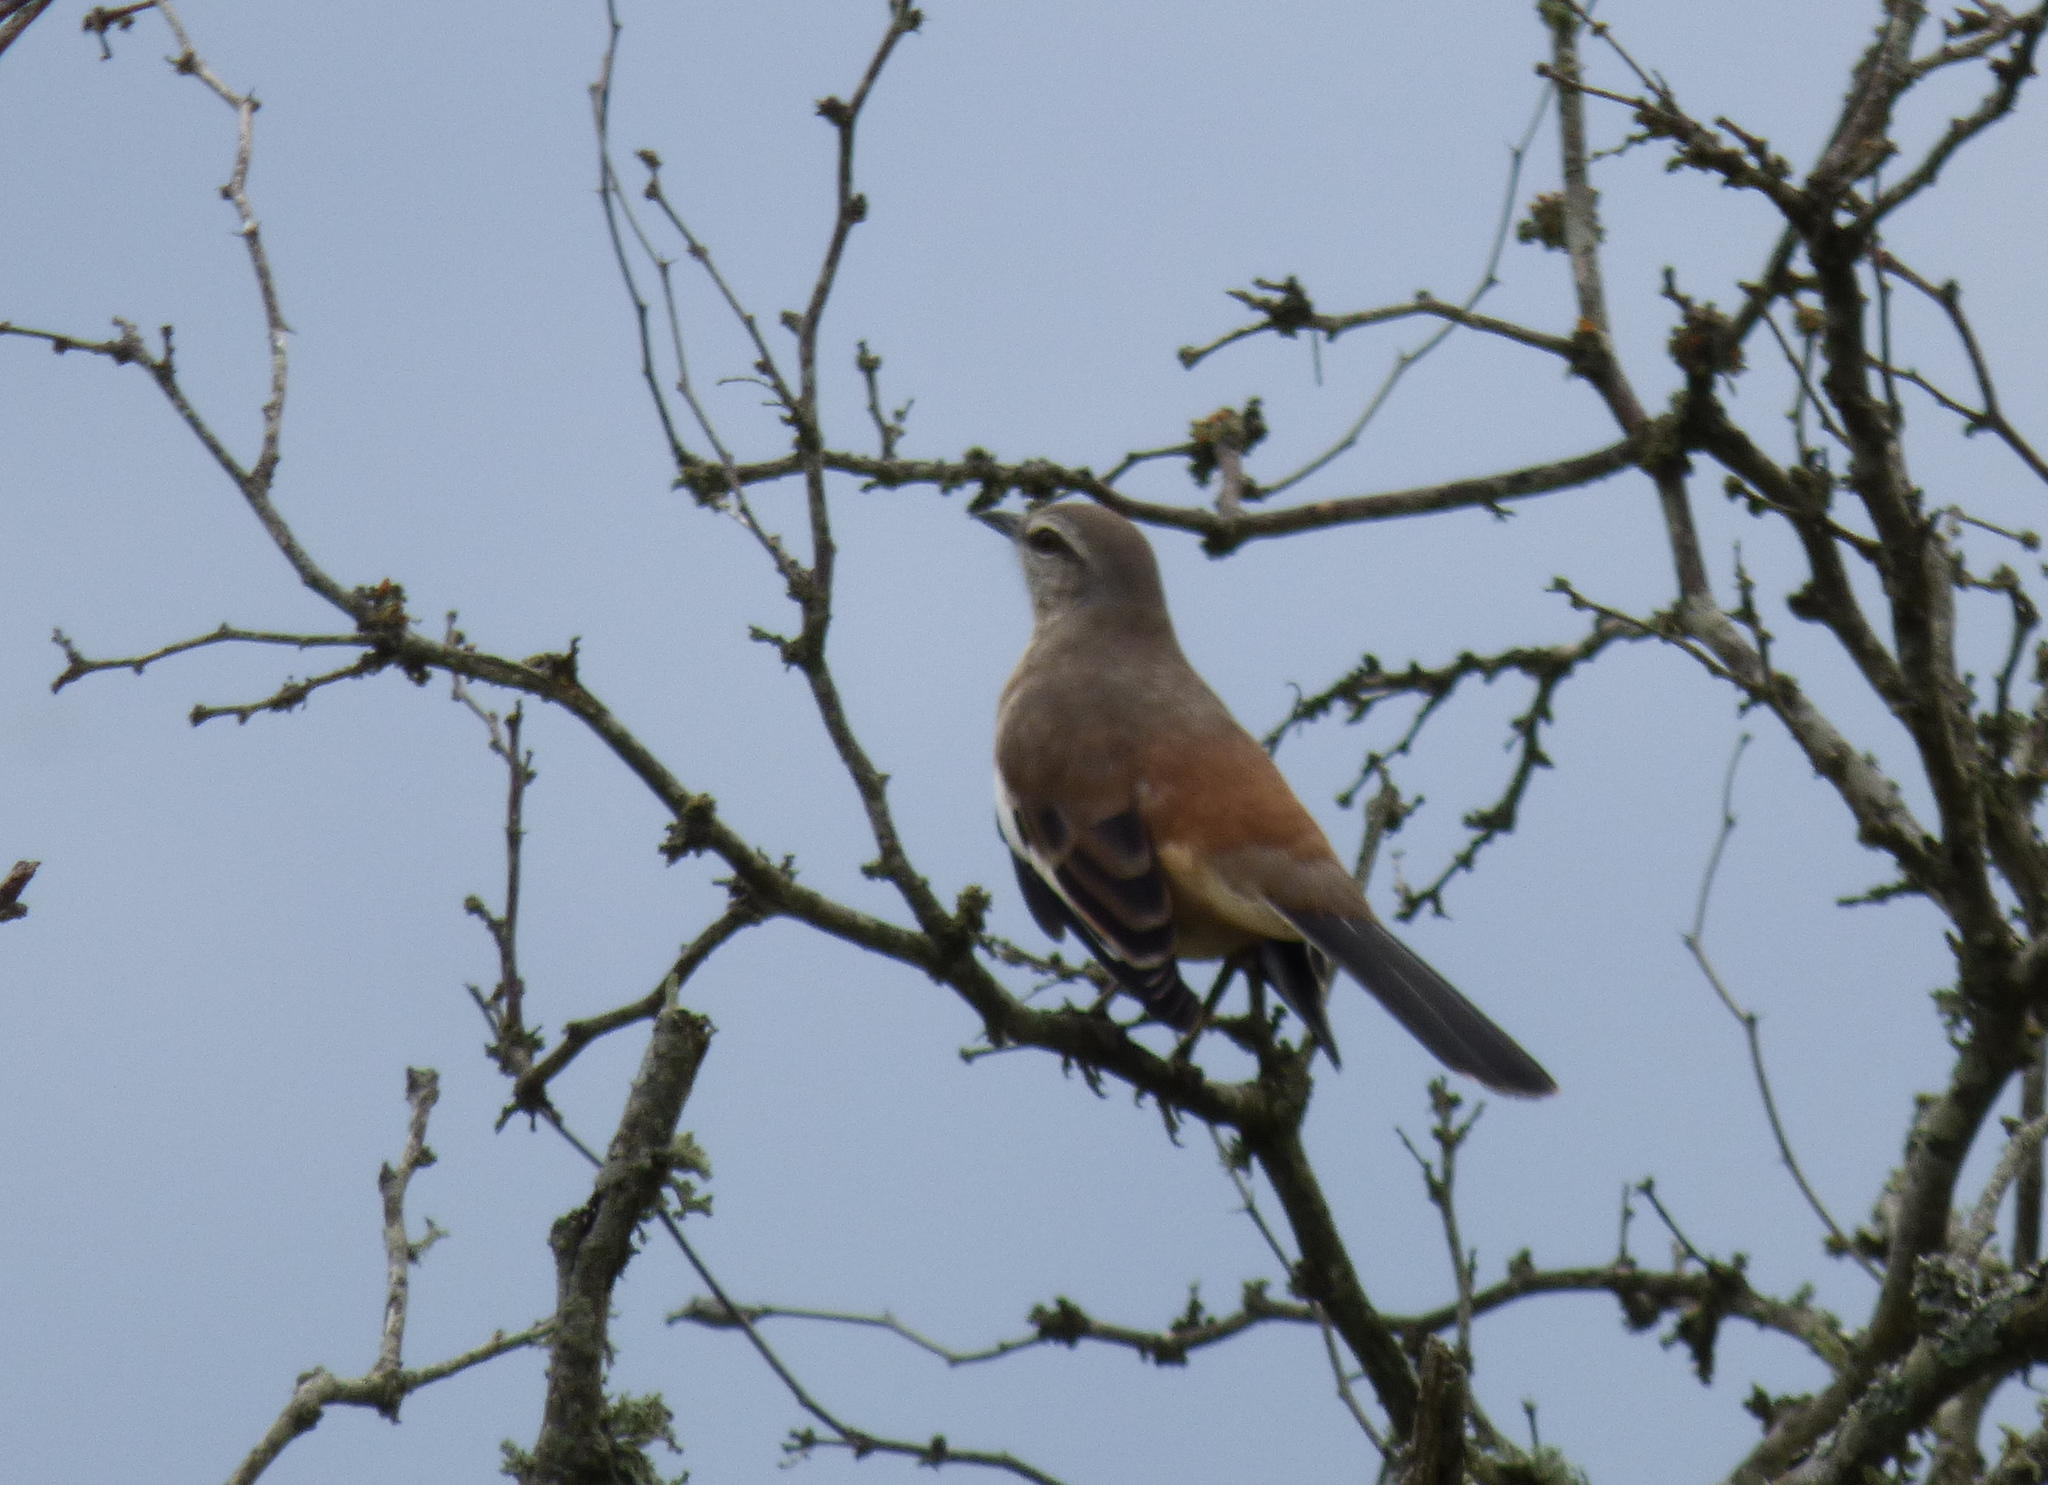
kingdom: Animalia
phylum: Chordata
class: Aves
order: Passeriformes
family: Mimidae
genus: Mimus
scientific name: Mimus triurus
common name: White-banded mockingbird
